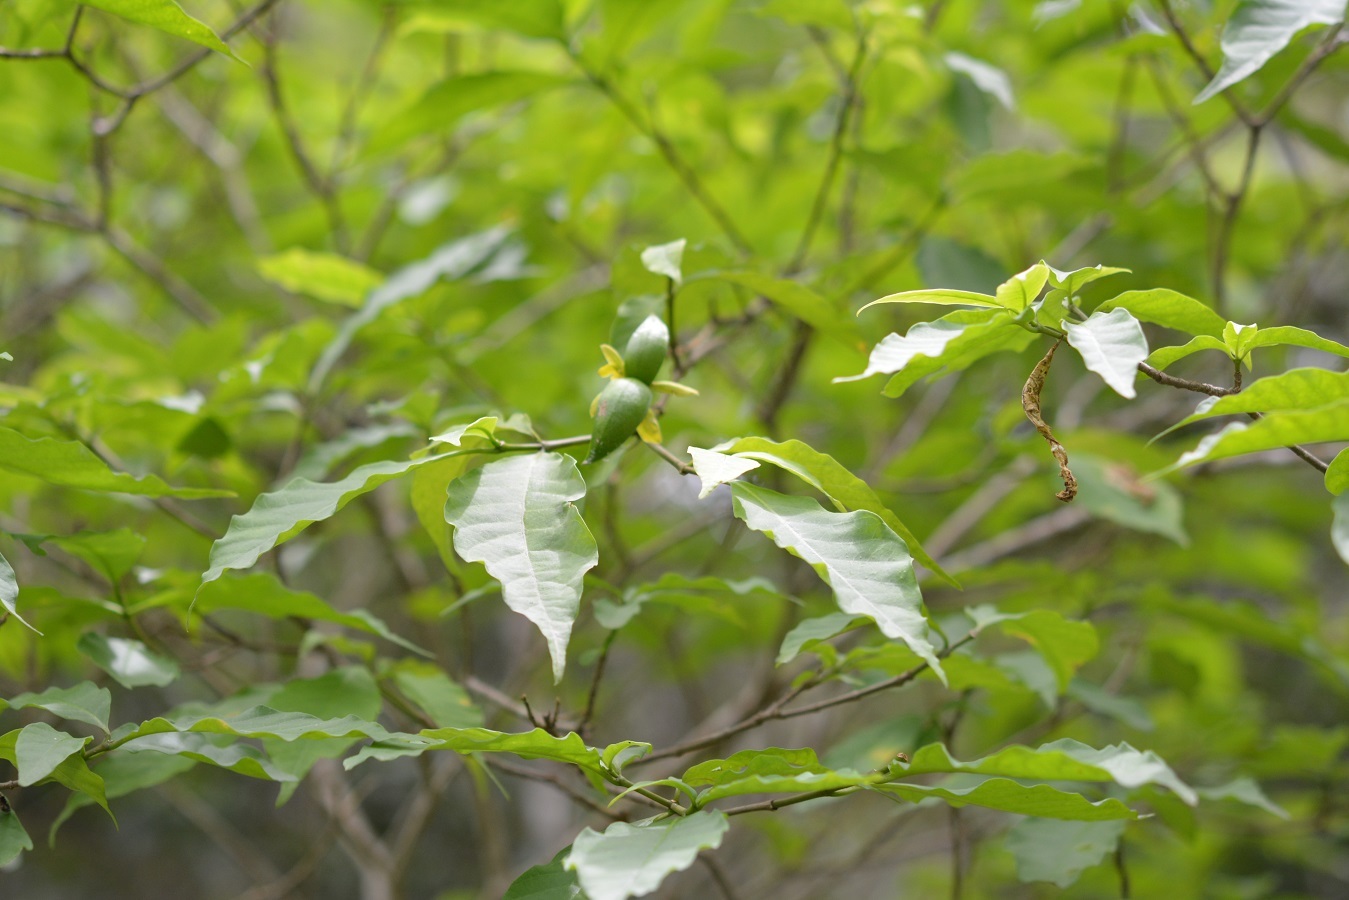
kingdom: Plantae
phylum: Tracheophyta
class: Magnoliopsida
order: Gentianales
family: Apocynaceae
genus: Tabernaemontana
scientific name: Tabernaemontana hannae
